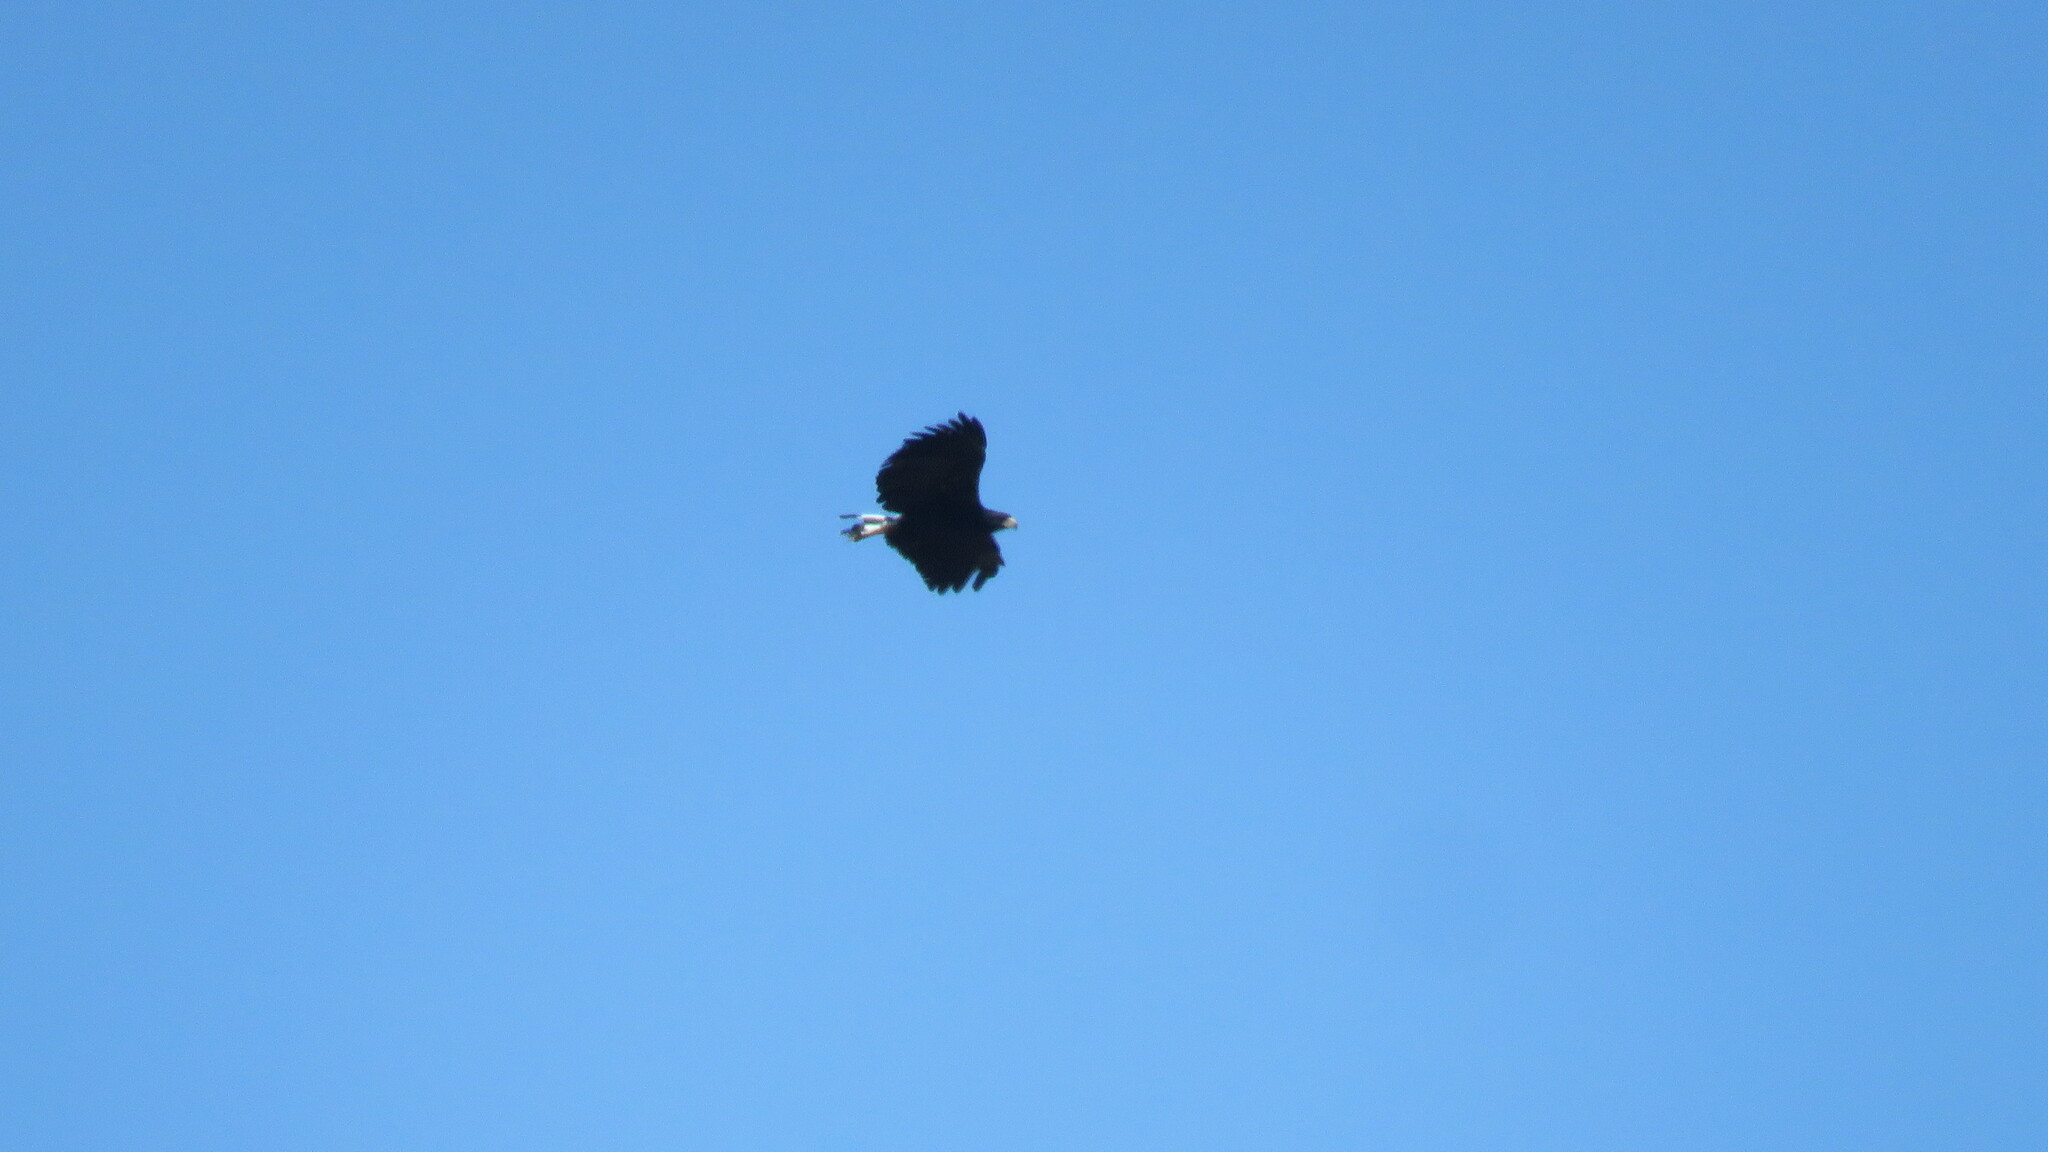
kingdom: Animalia
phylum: Chordata
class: Aves
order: Accipitriformes
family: Accipitridae
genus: Buteogallus
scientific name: Buteogallus urubitinga
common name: Great black hawk
